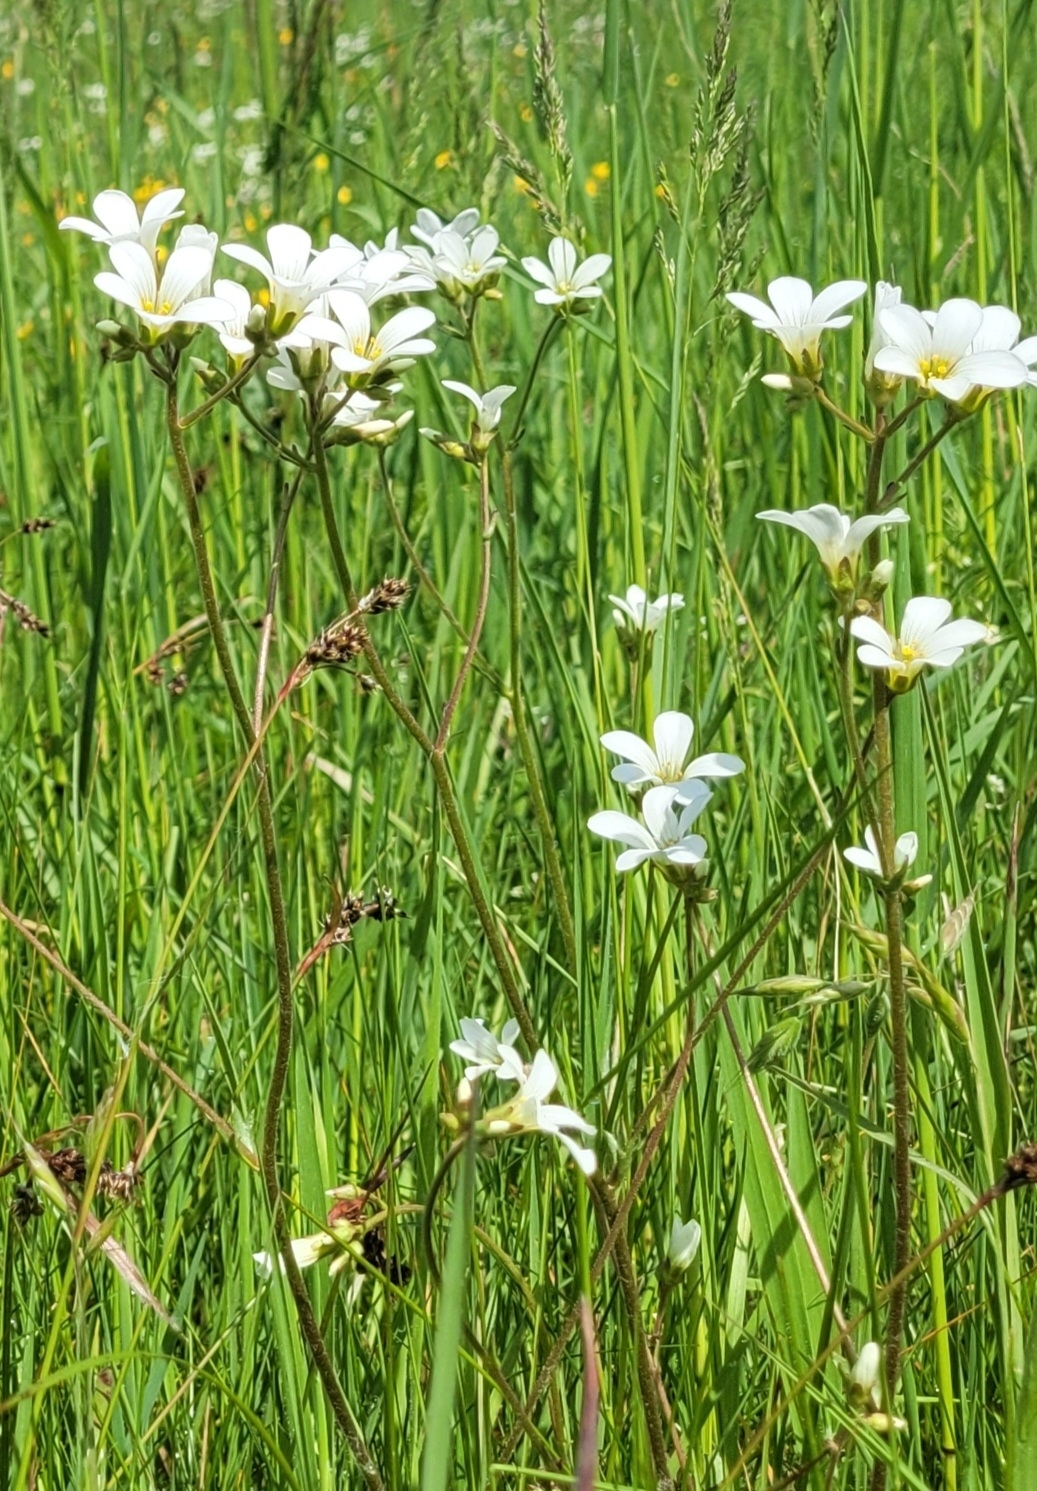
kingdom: Plantae
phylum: Tracheophyta
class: Magnoliopsida
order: Saxifragales
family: Saxifragaceae
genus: Saxifraga
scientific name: Saxifraga granulata
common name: Meadow saxifrage
